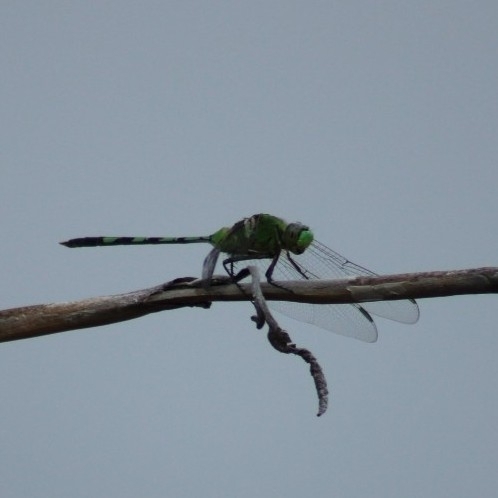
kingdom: Animalia
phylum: Arthropoda
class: Insecta
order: Odonata
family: Libellulidae
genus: Erythemis
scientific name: Erythemis vesiculosa
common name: Great pondhawk
